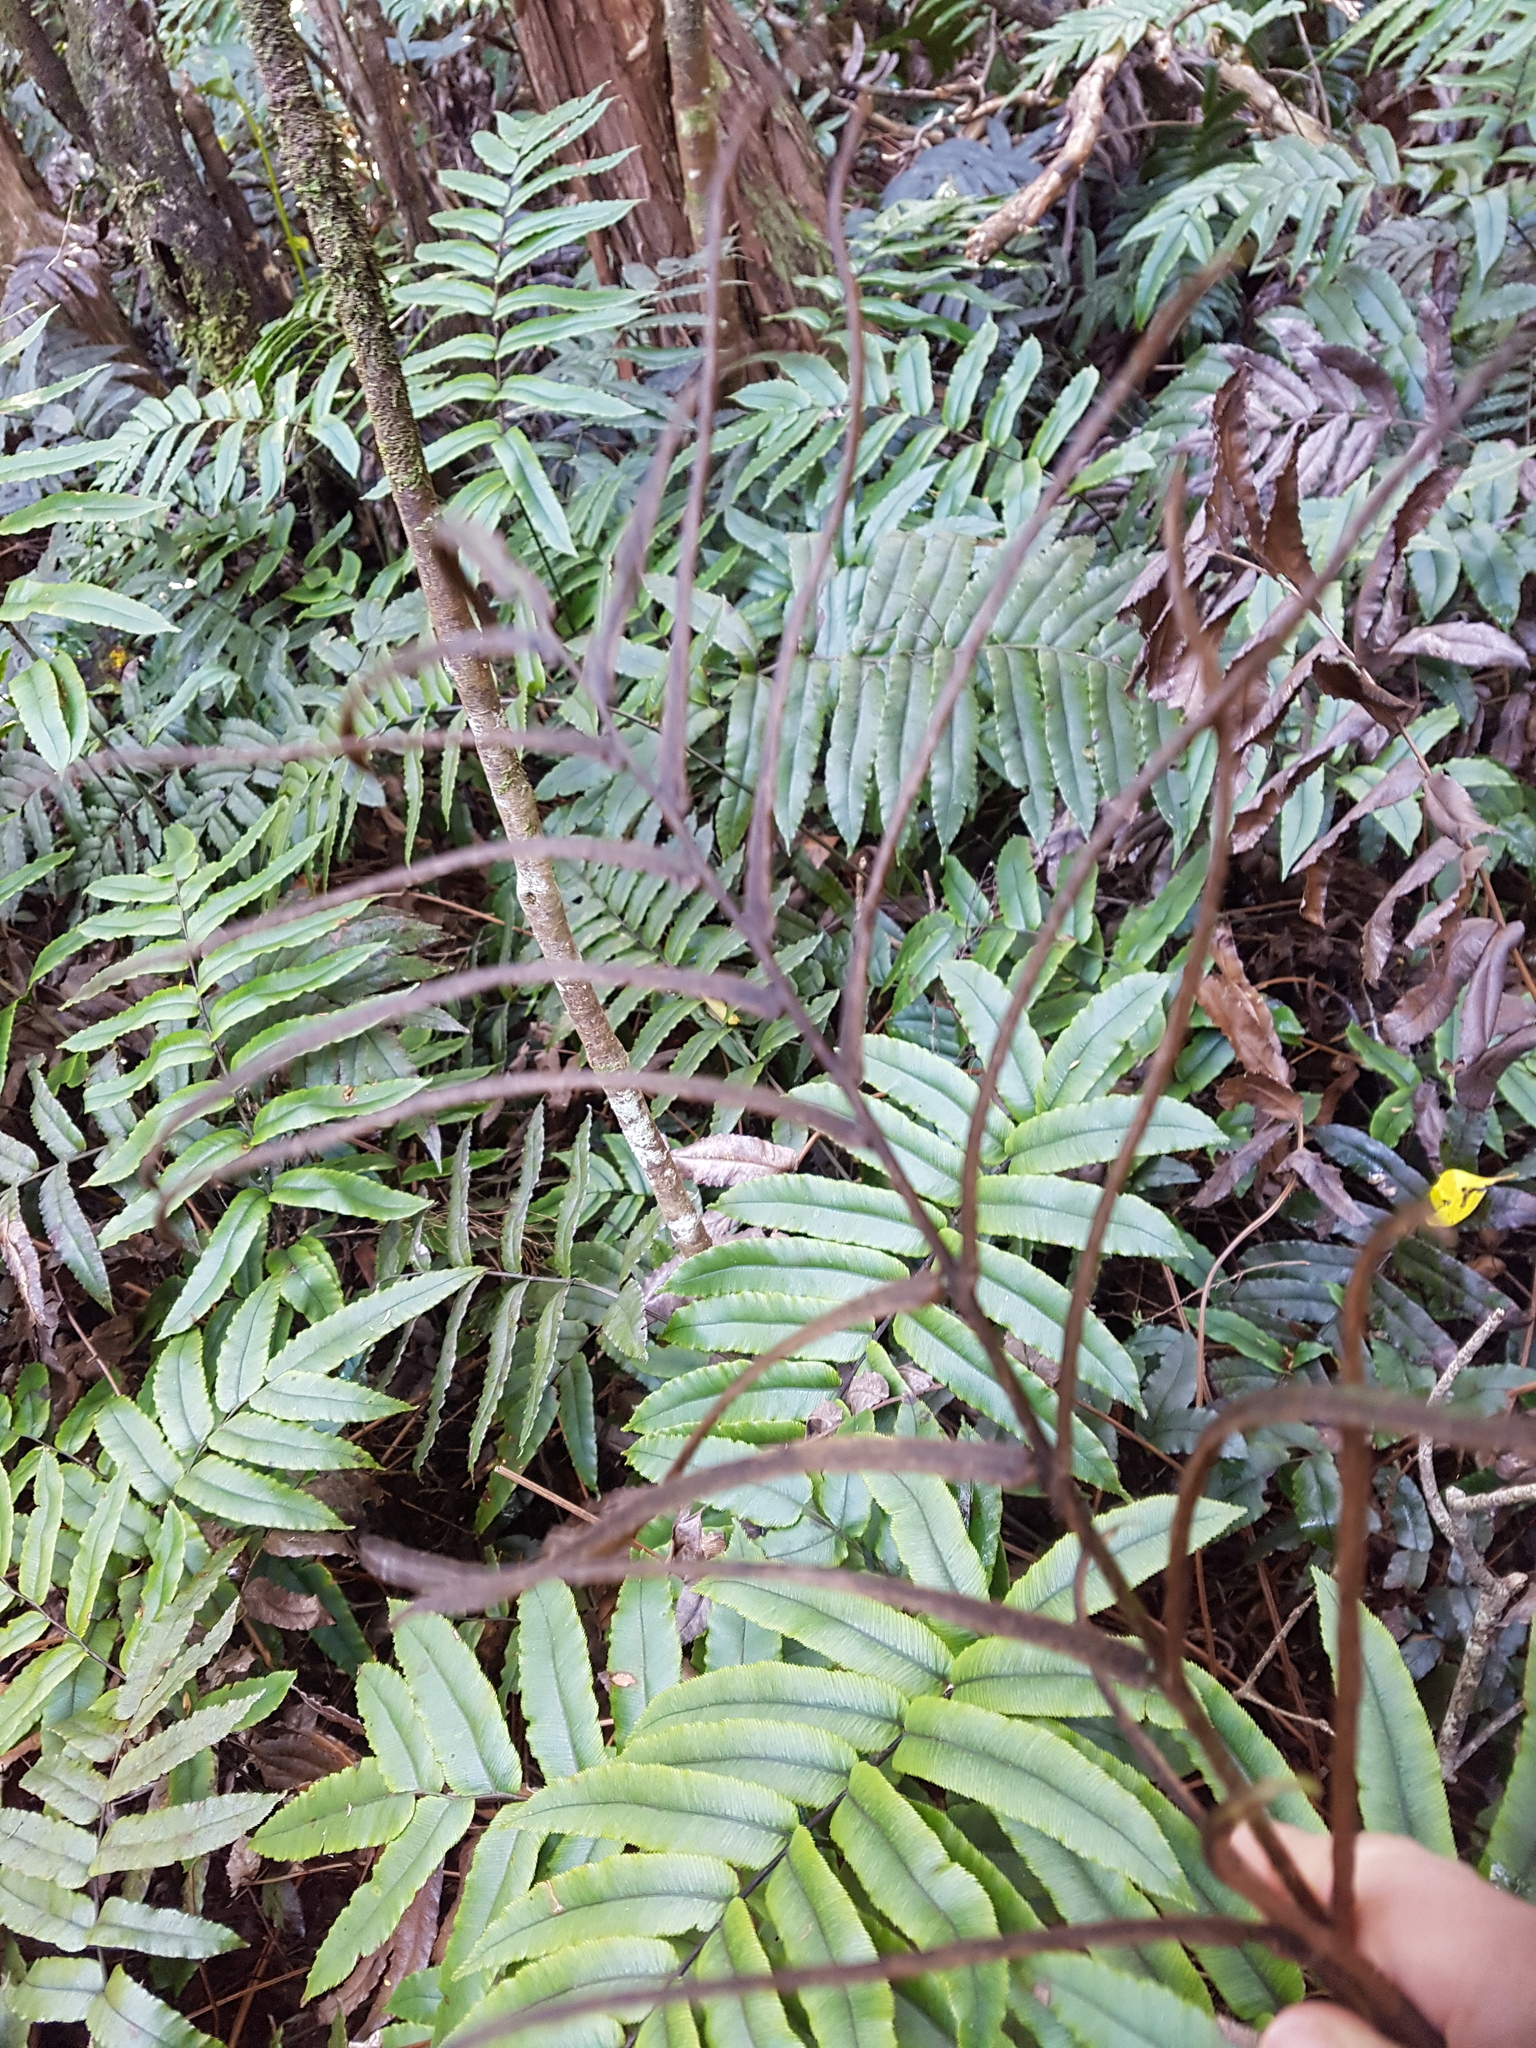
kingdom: Plantae
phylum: Tracheophyta
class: Polypodiopsida
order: Polypodiales
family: Blechnaceae
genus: Parablechnum
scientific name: Parablechnum procerum
